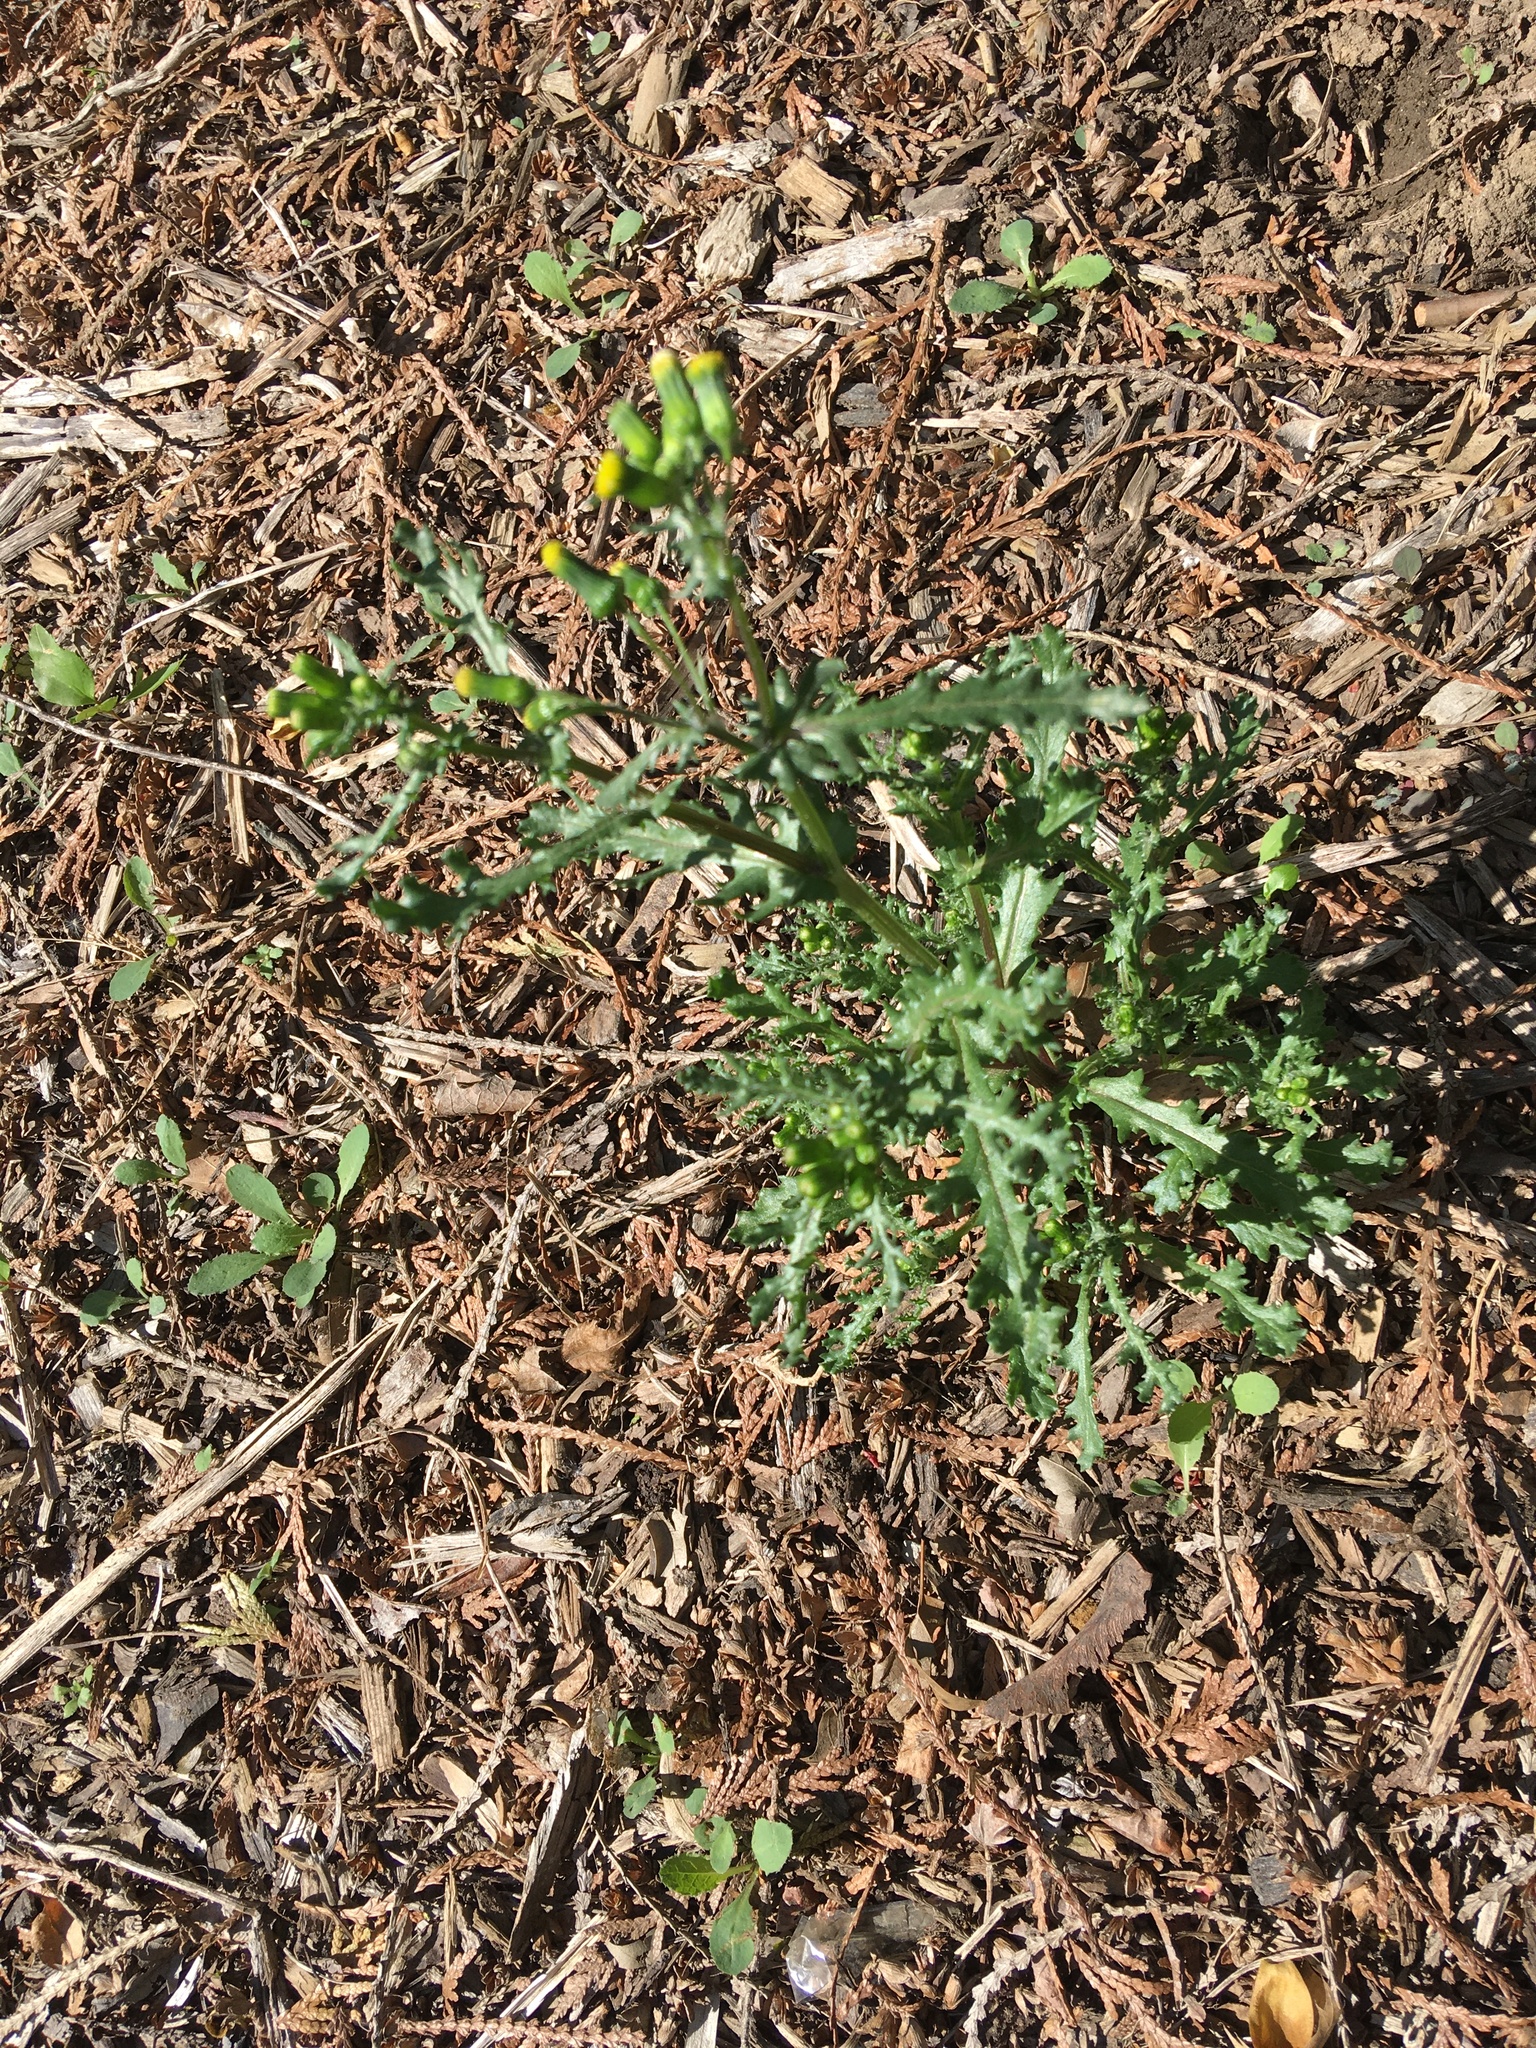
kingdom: Plantae
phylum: Tracheophyta
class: Magnoliopsida
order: Asterales
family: Asteraceae
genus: Senecio
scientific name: Senecio vulgaris
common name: Old-man-in-the-spring
